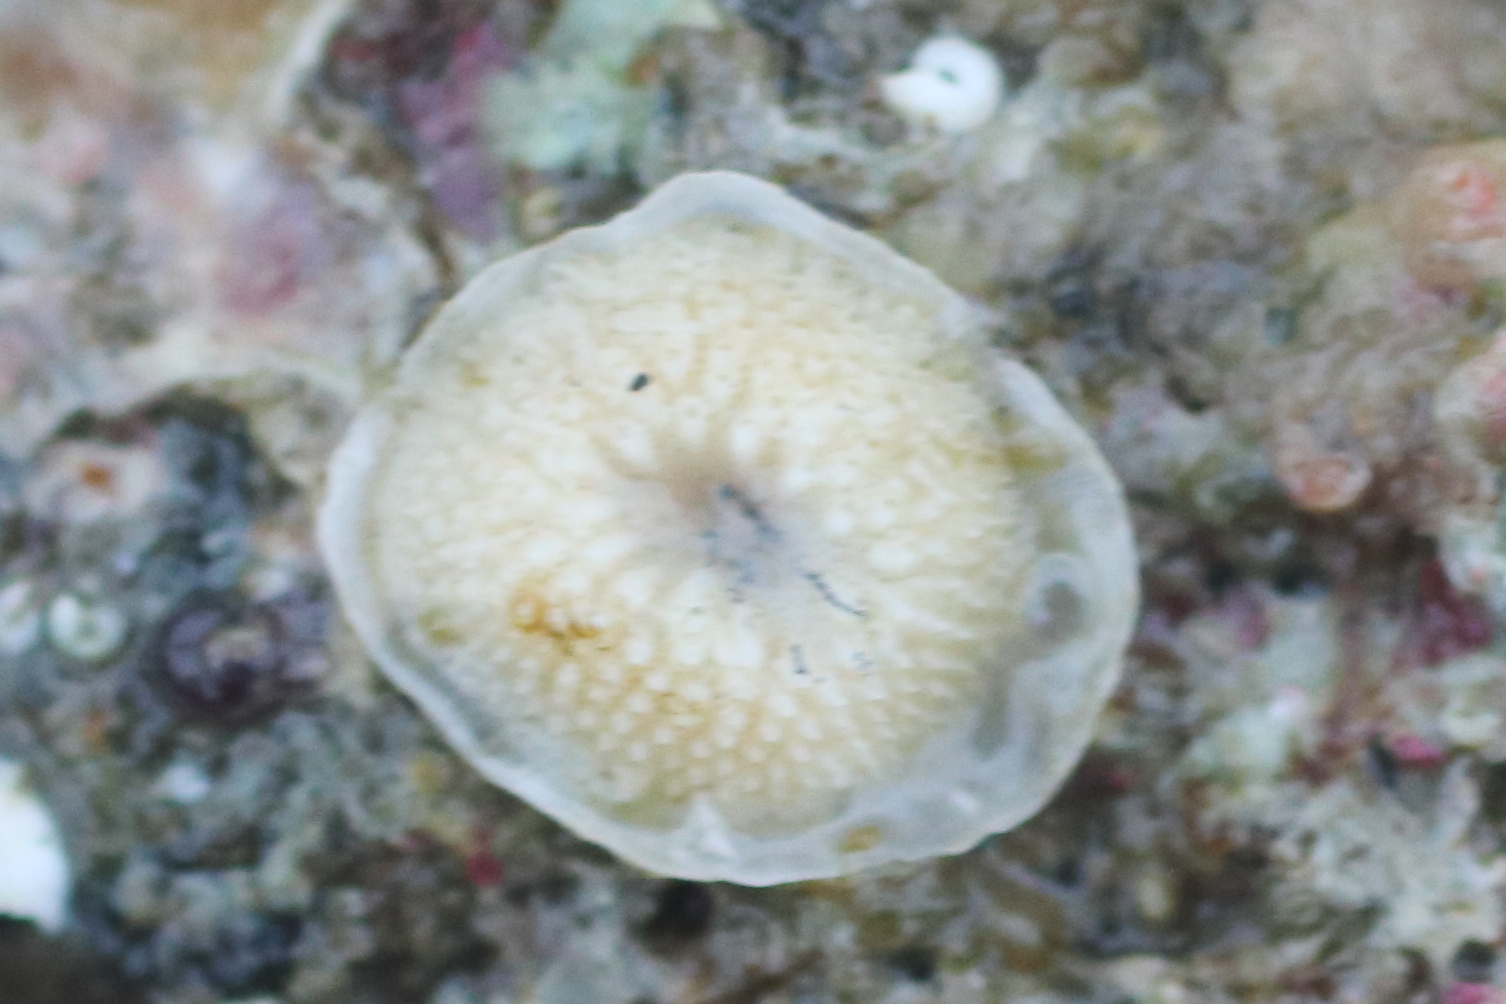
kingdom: Animalia
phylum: Bryozoa
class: Stenolaemata
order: Cyclostomatida
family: Lichenoporidae
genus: Patinella
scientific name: Patinella verrucaria
